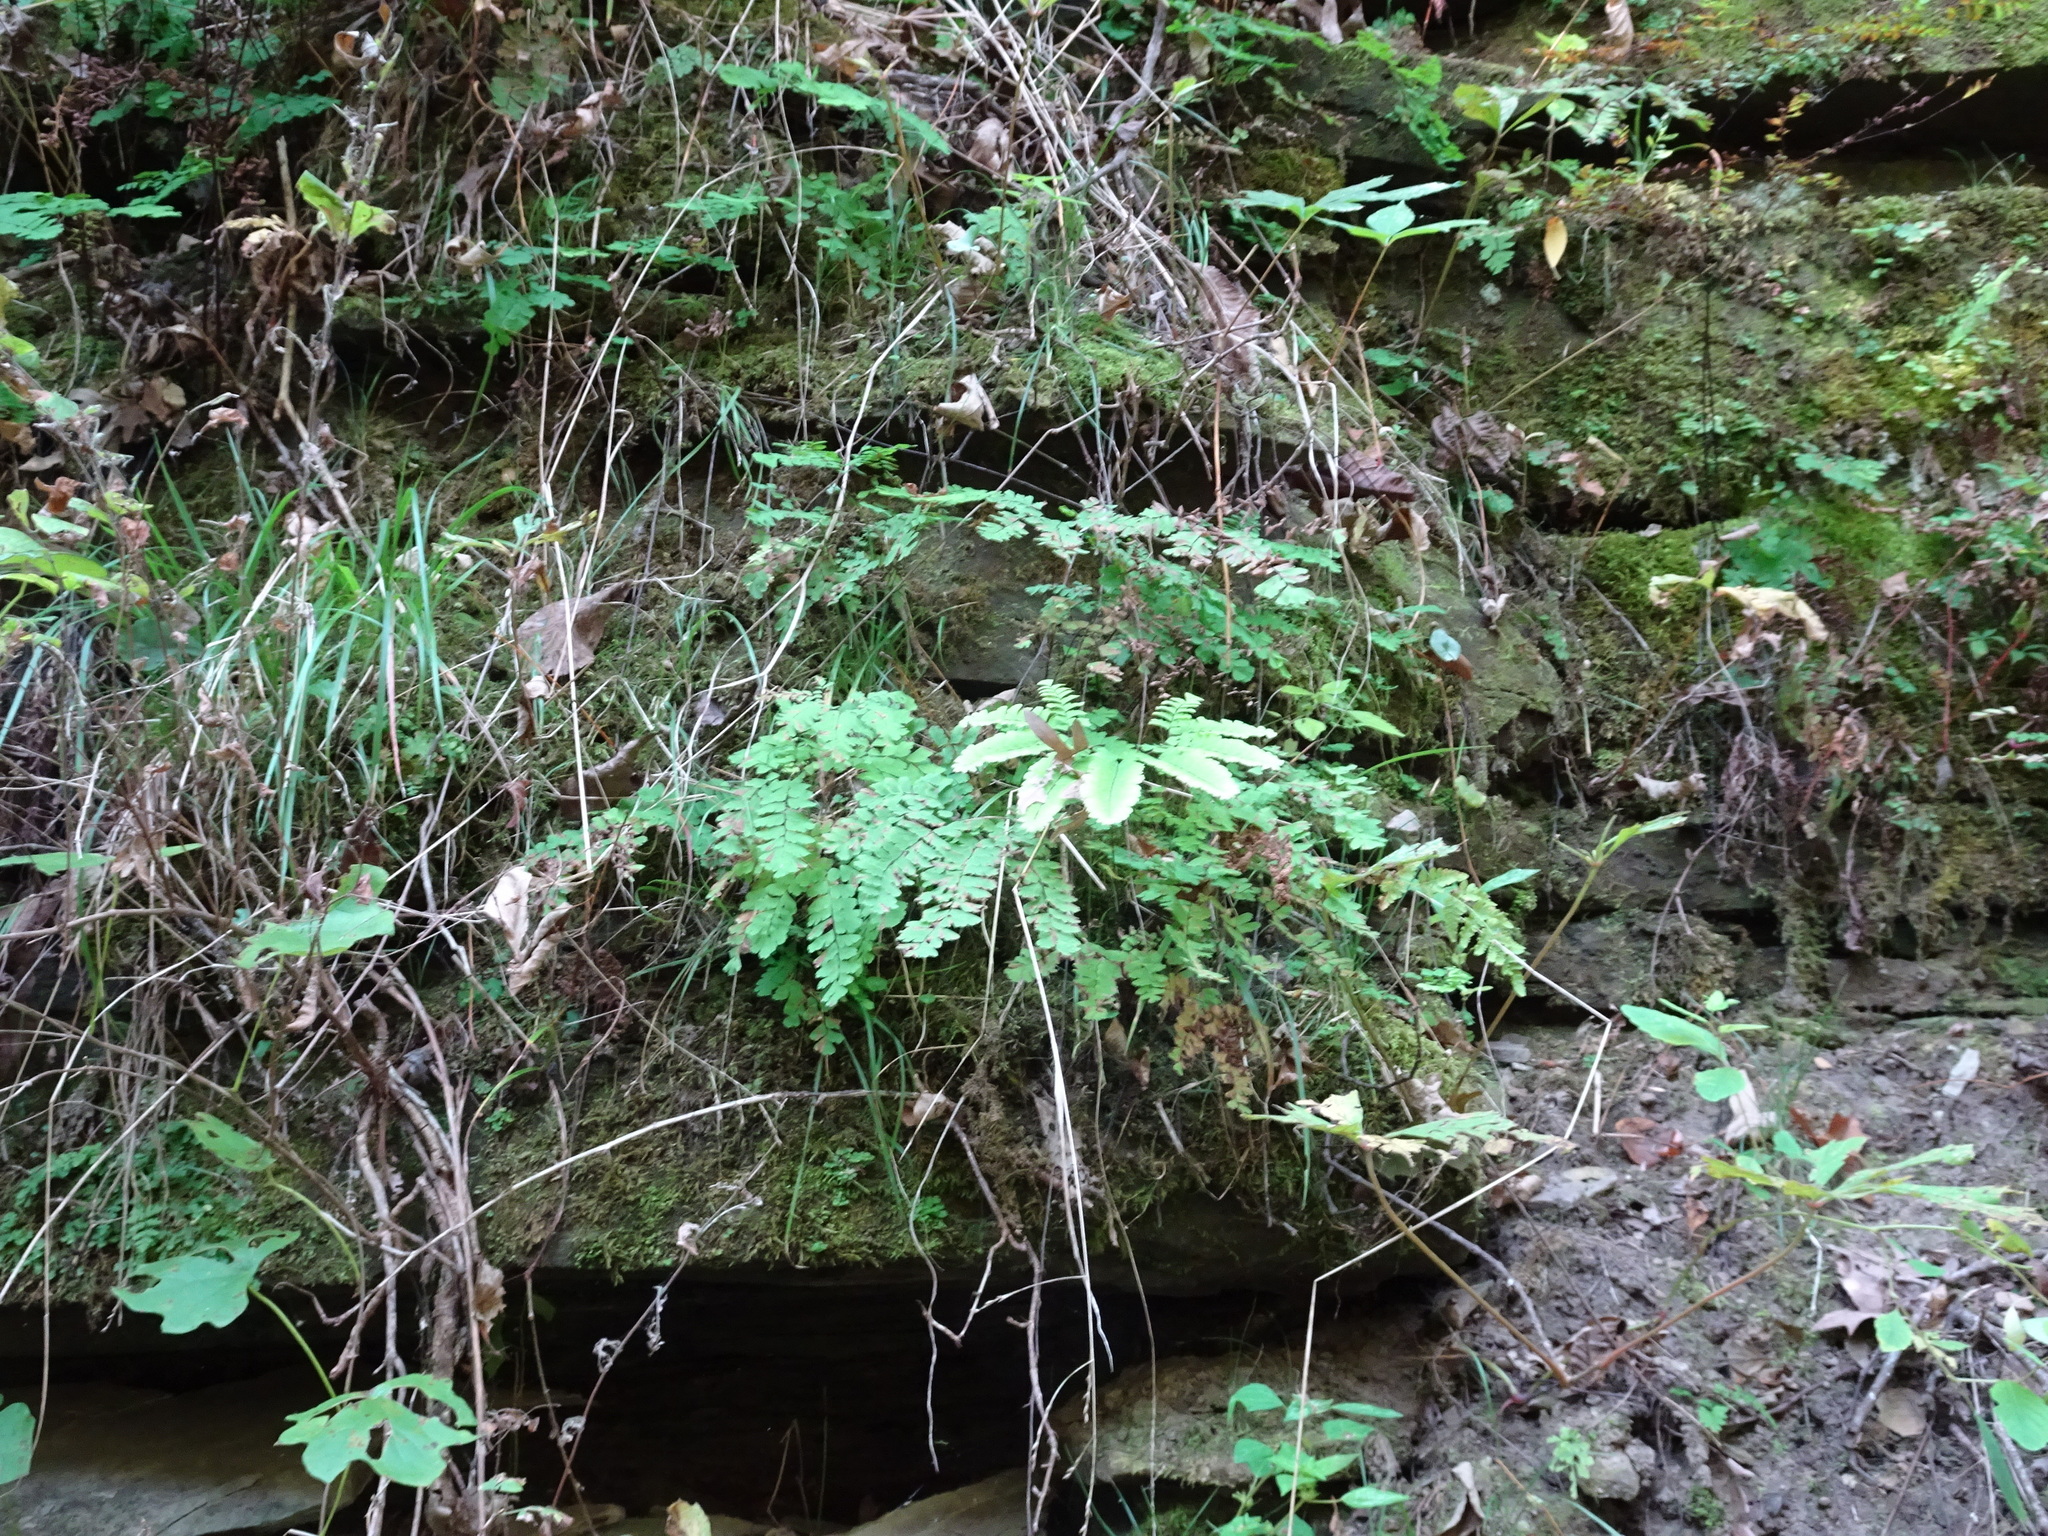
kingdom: Plantae
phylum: Tracheophyta
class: Polypodiopsida
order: Polypodiales
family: Pteridaceae
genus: Adiantum
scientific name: Adiantum pedatum
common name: Five-finger fern
